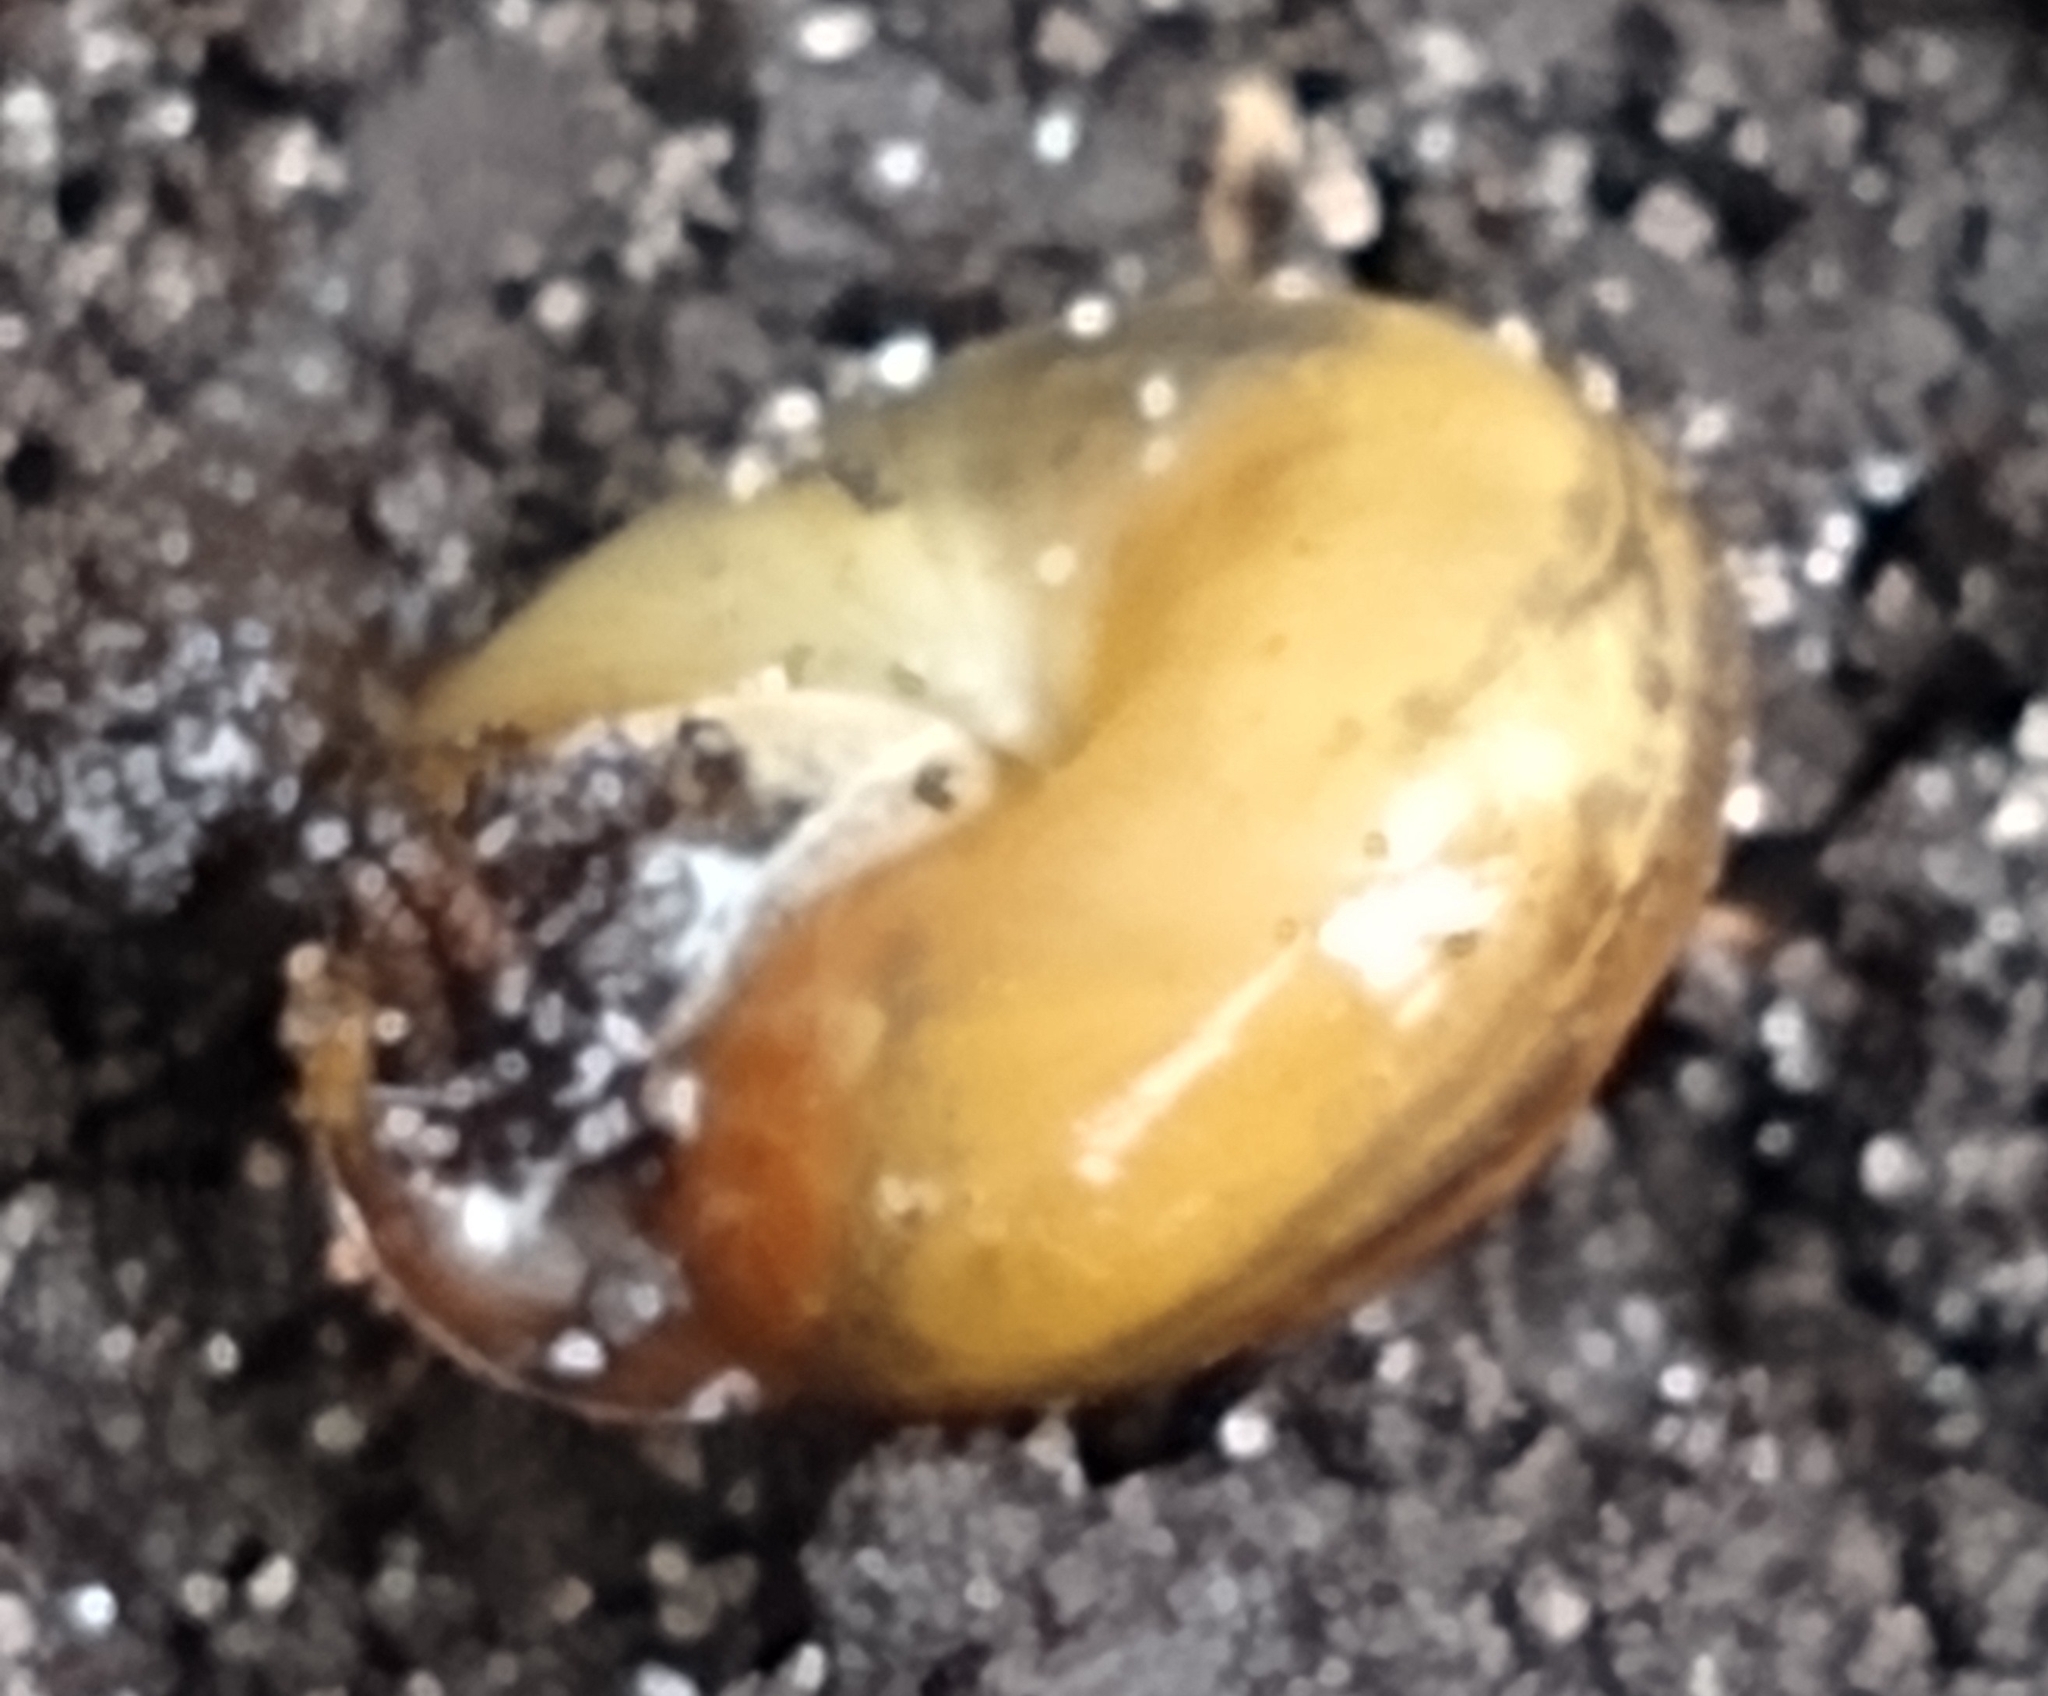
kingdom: Animalia
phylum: Mollusca
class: Gastropoda
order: Stylommatophora
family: Polygyridae
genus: Polygyra
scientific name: Polygyra cereolus
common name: Southern flatcone snail
